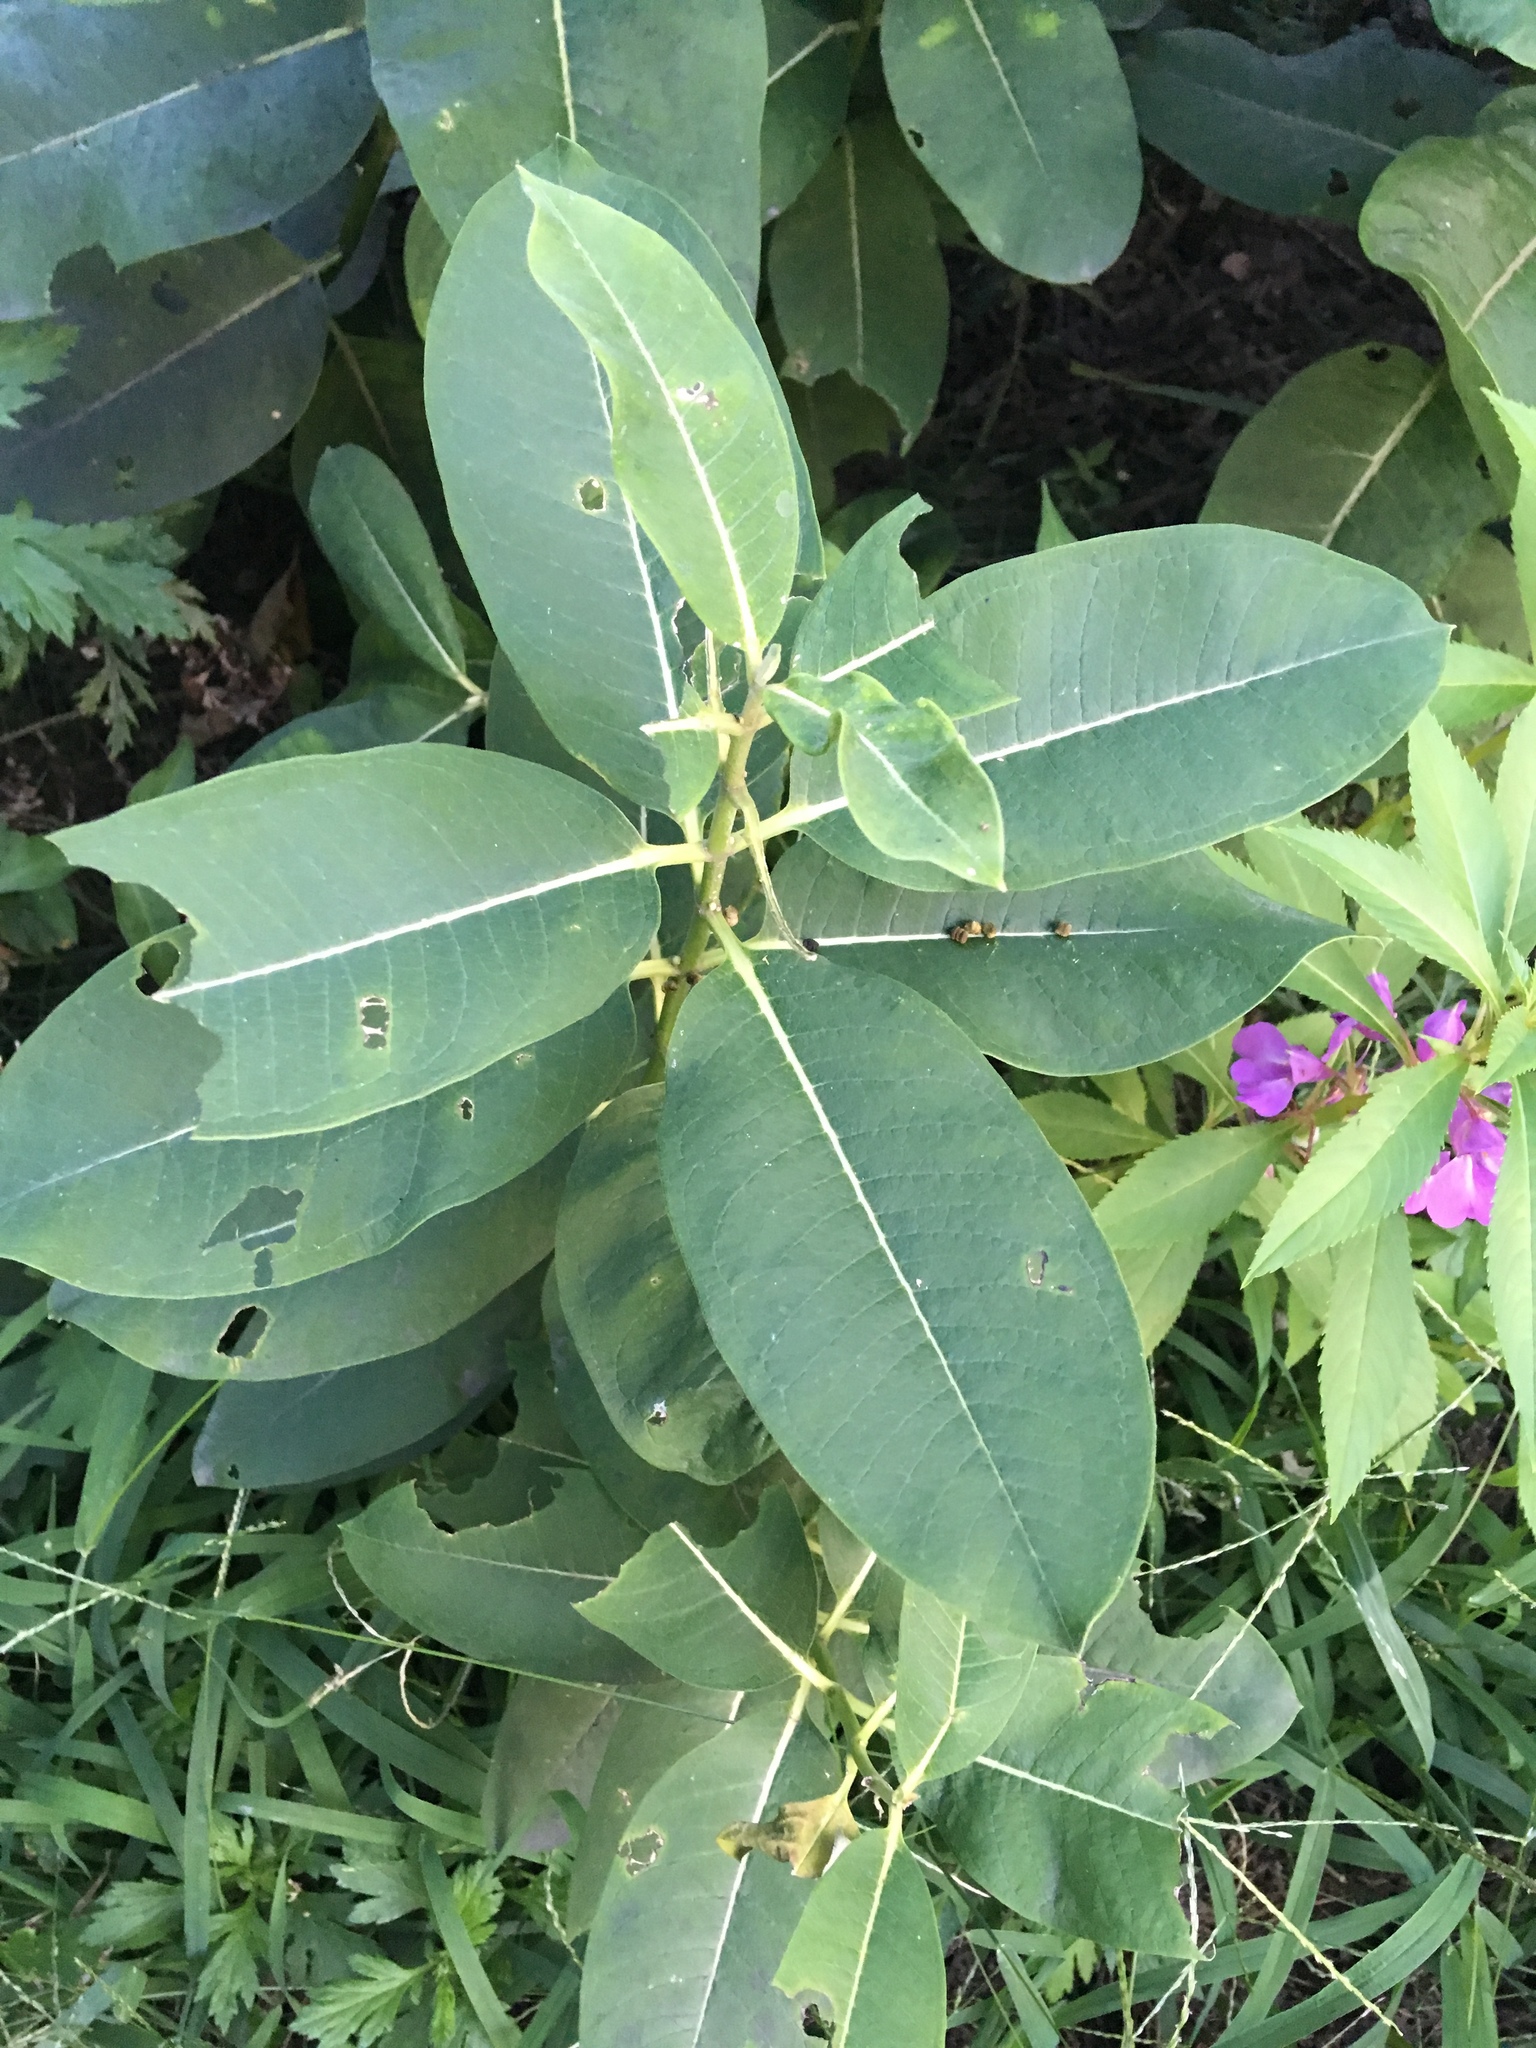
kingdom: Plantae
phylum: Tracheophyta
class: Magnoliopsida
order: Gentianales
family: Apocynaceae
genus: Asclepias
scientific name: Asclepias syriaca
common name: Common milkweed
